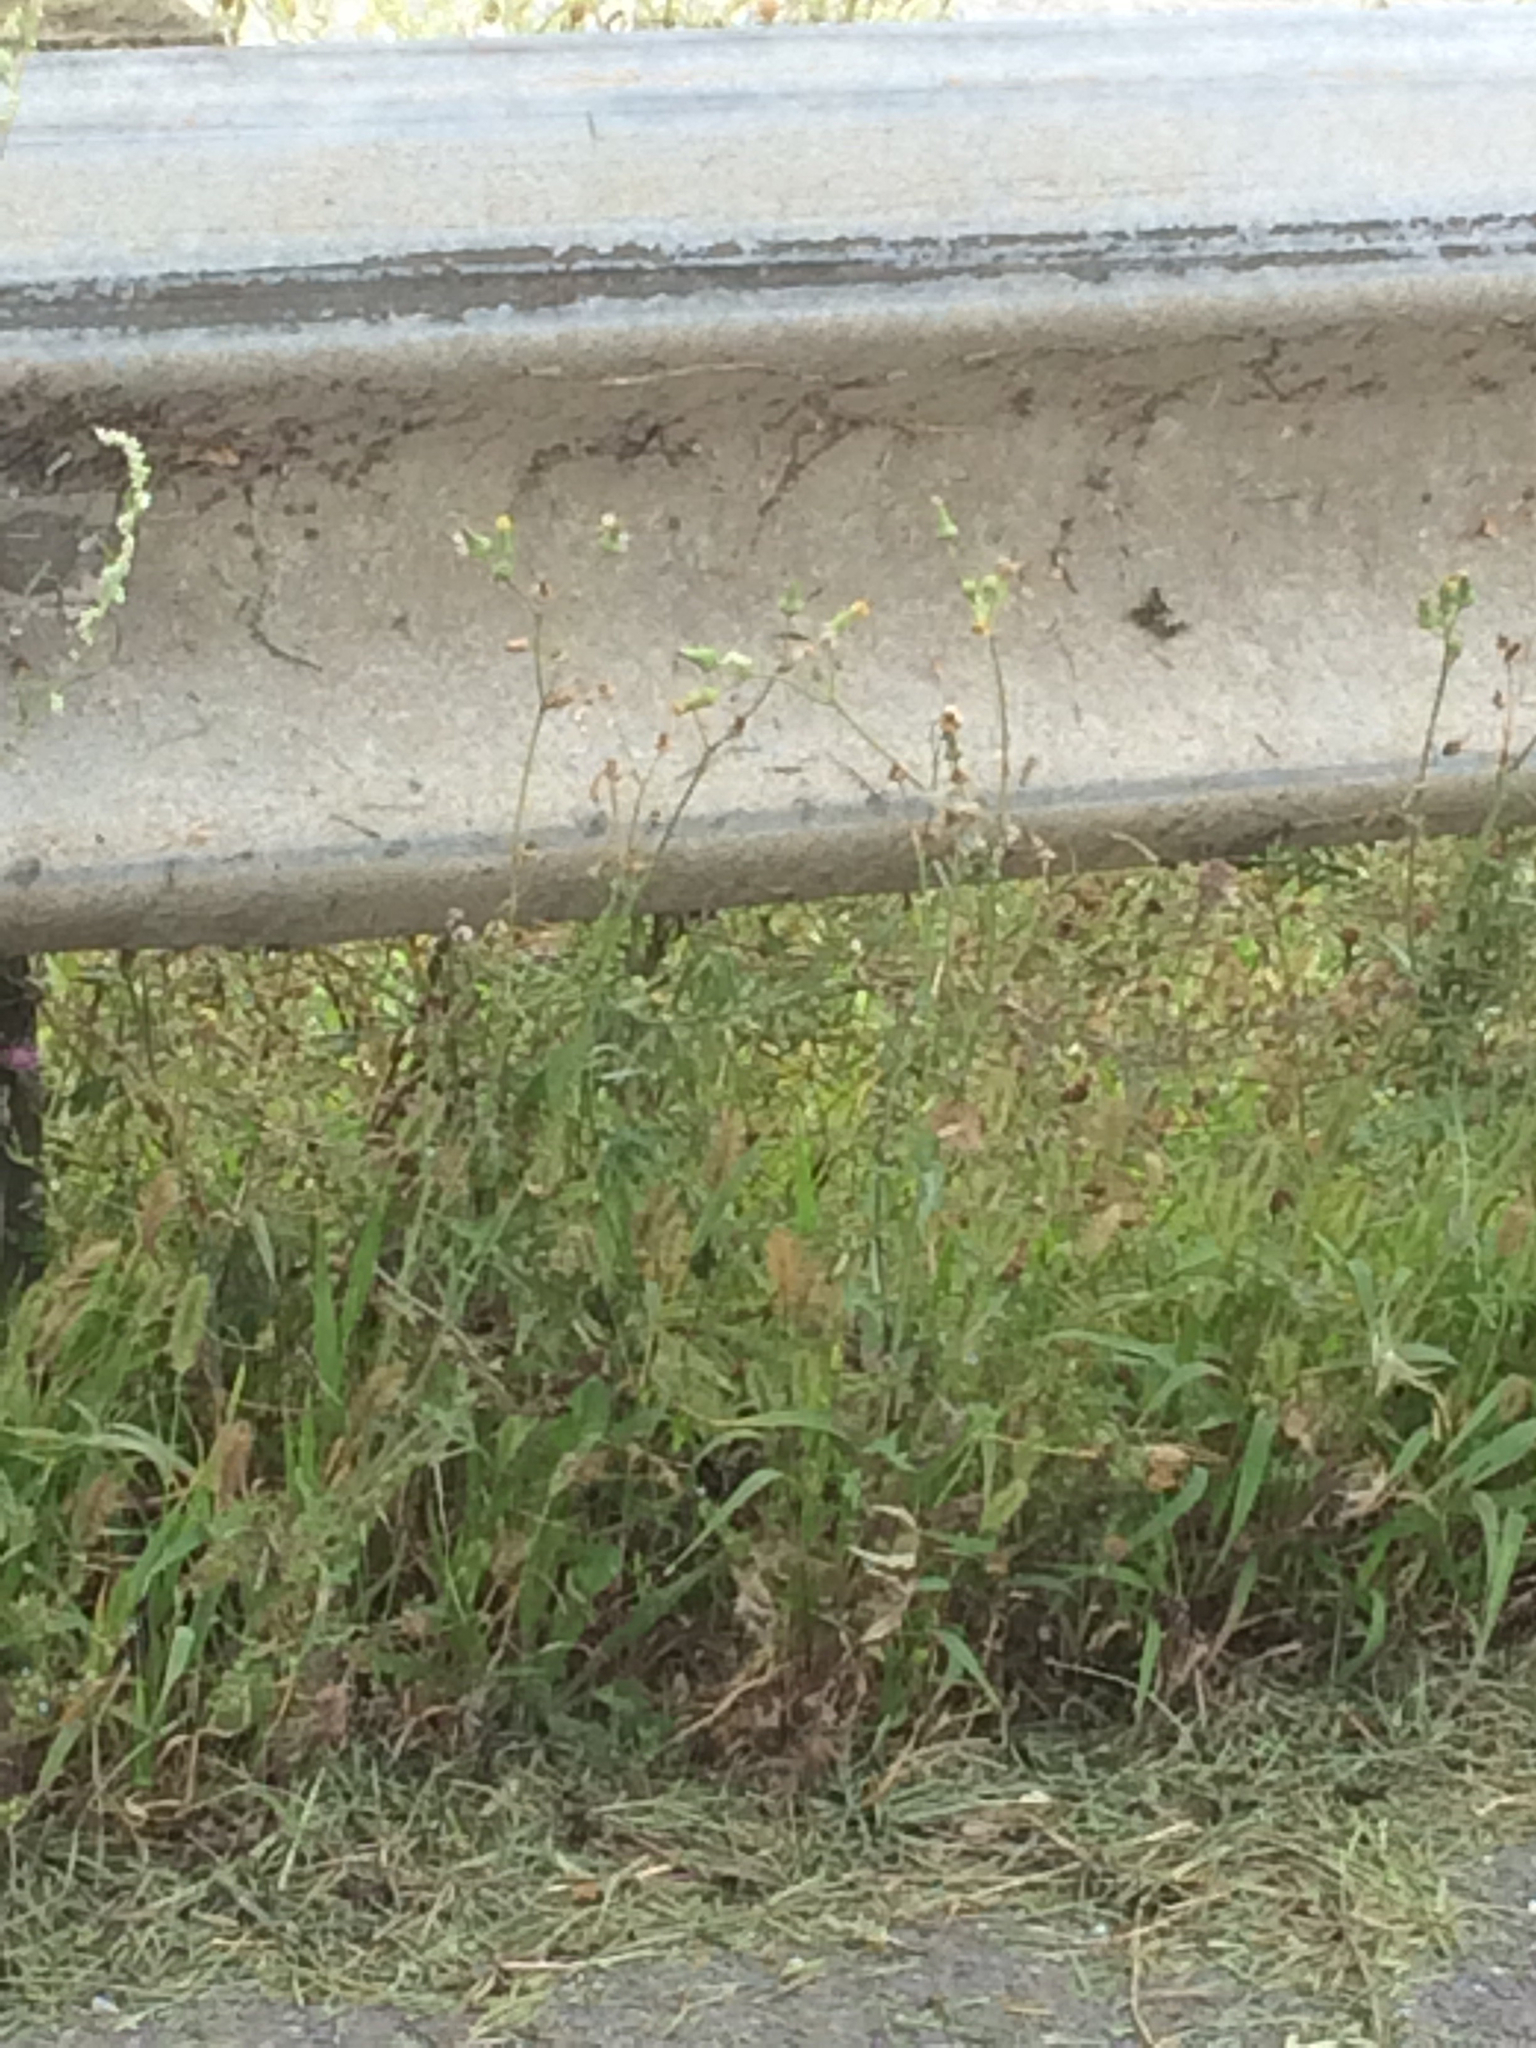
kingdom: Plantae
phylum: Tracheophyta
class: Magnoliopsida
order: Asterales
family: Asteraceae
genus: Erechtites
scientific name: Erechtites hieraciifolius
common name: American burnweed
